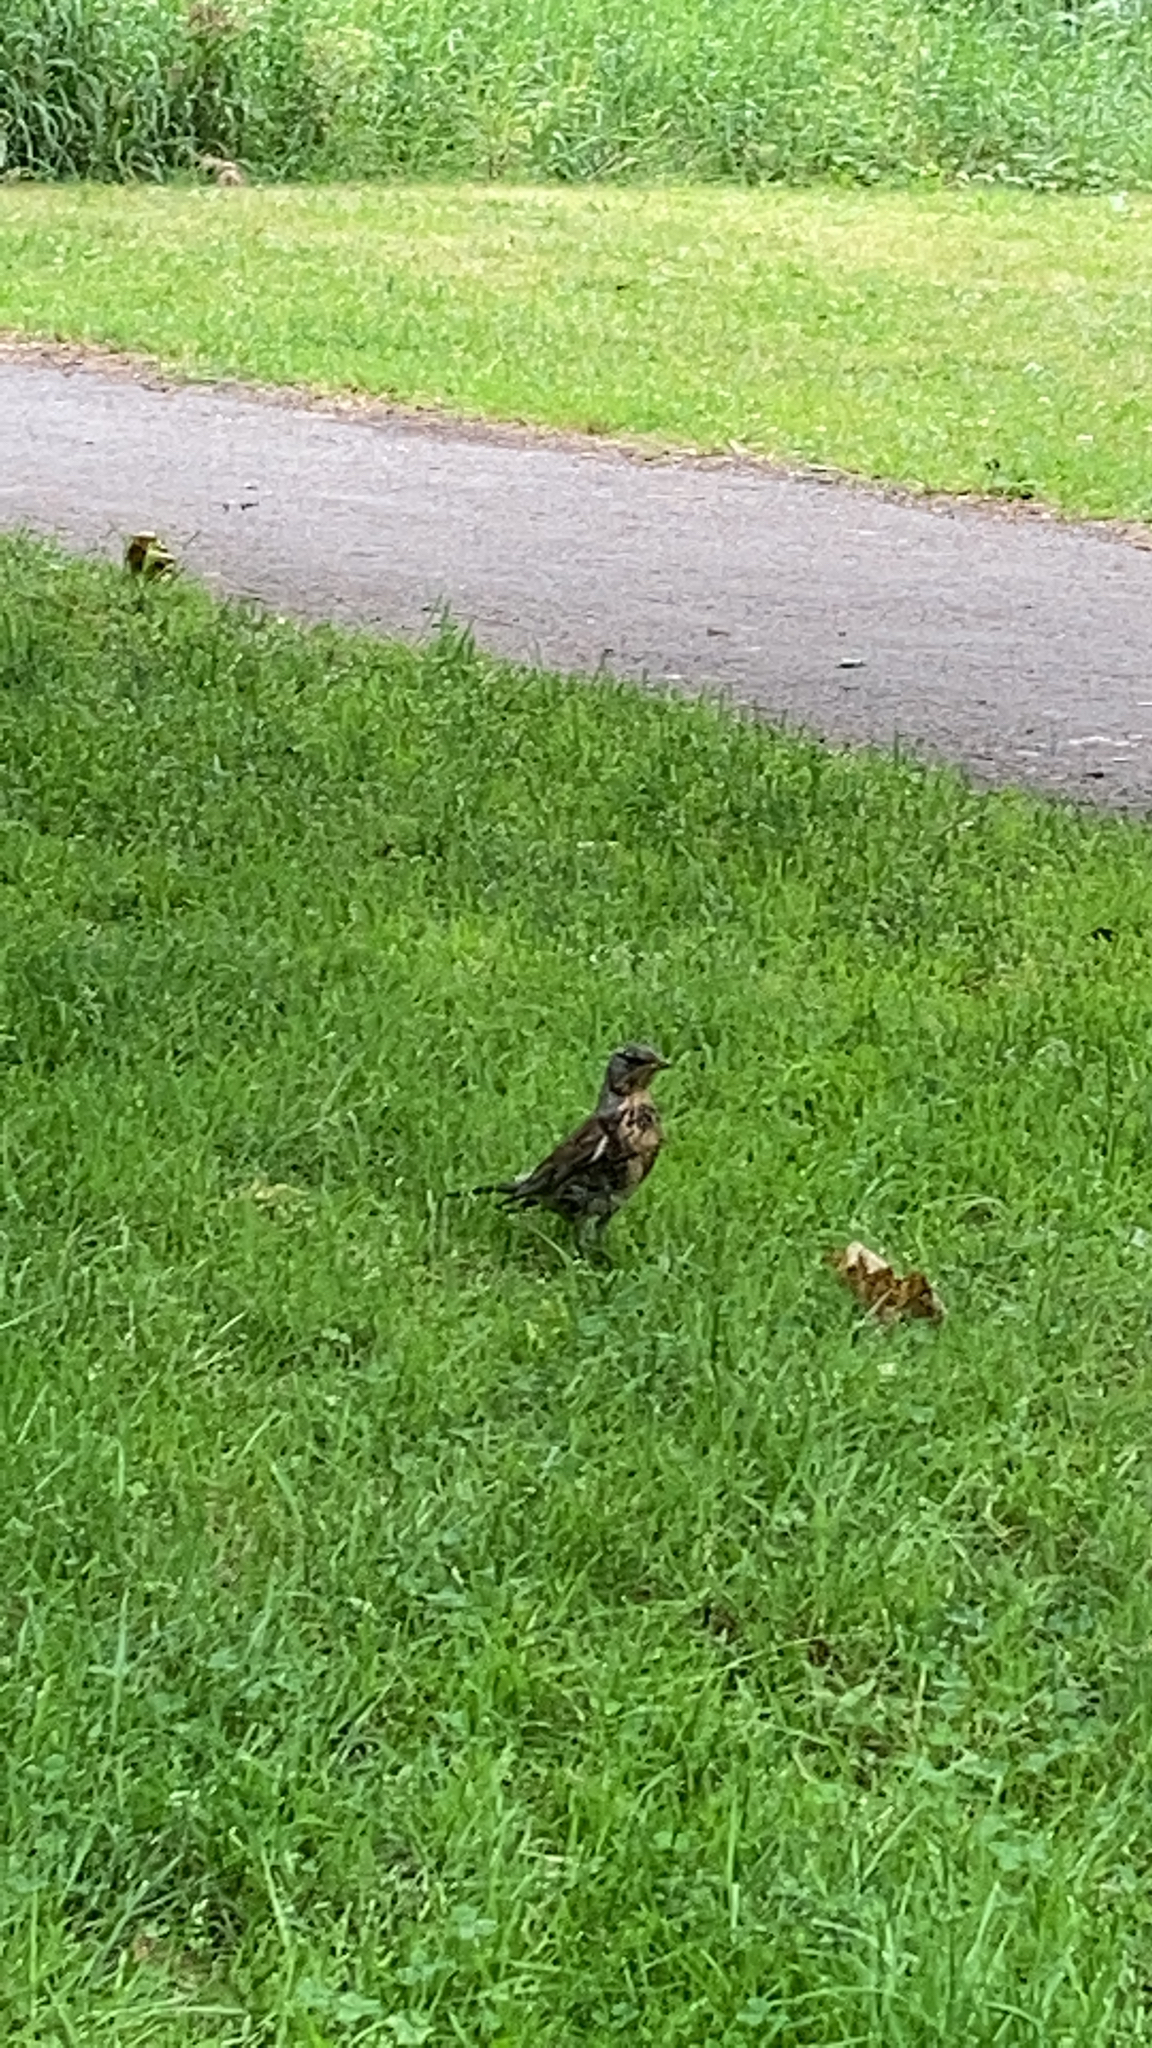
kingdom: Animalia
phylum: Chordata
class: Aves
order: Passeriformes
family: Turdidae
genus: Turdus
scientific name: Turdus pilaris
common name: Fieldfare
